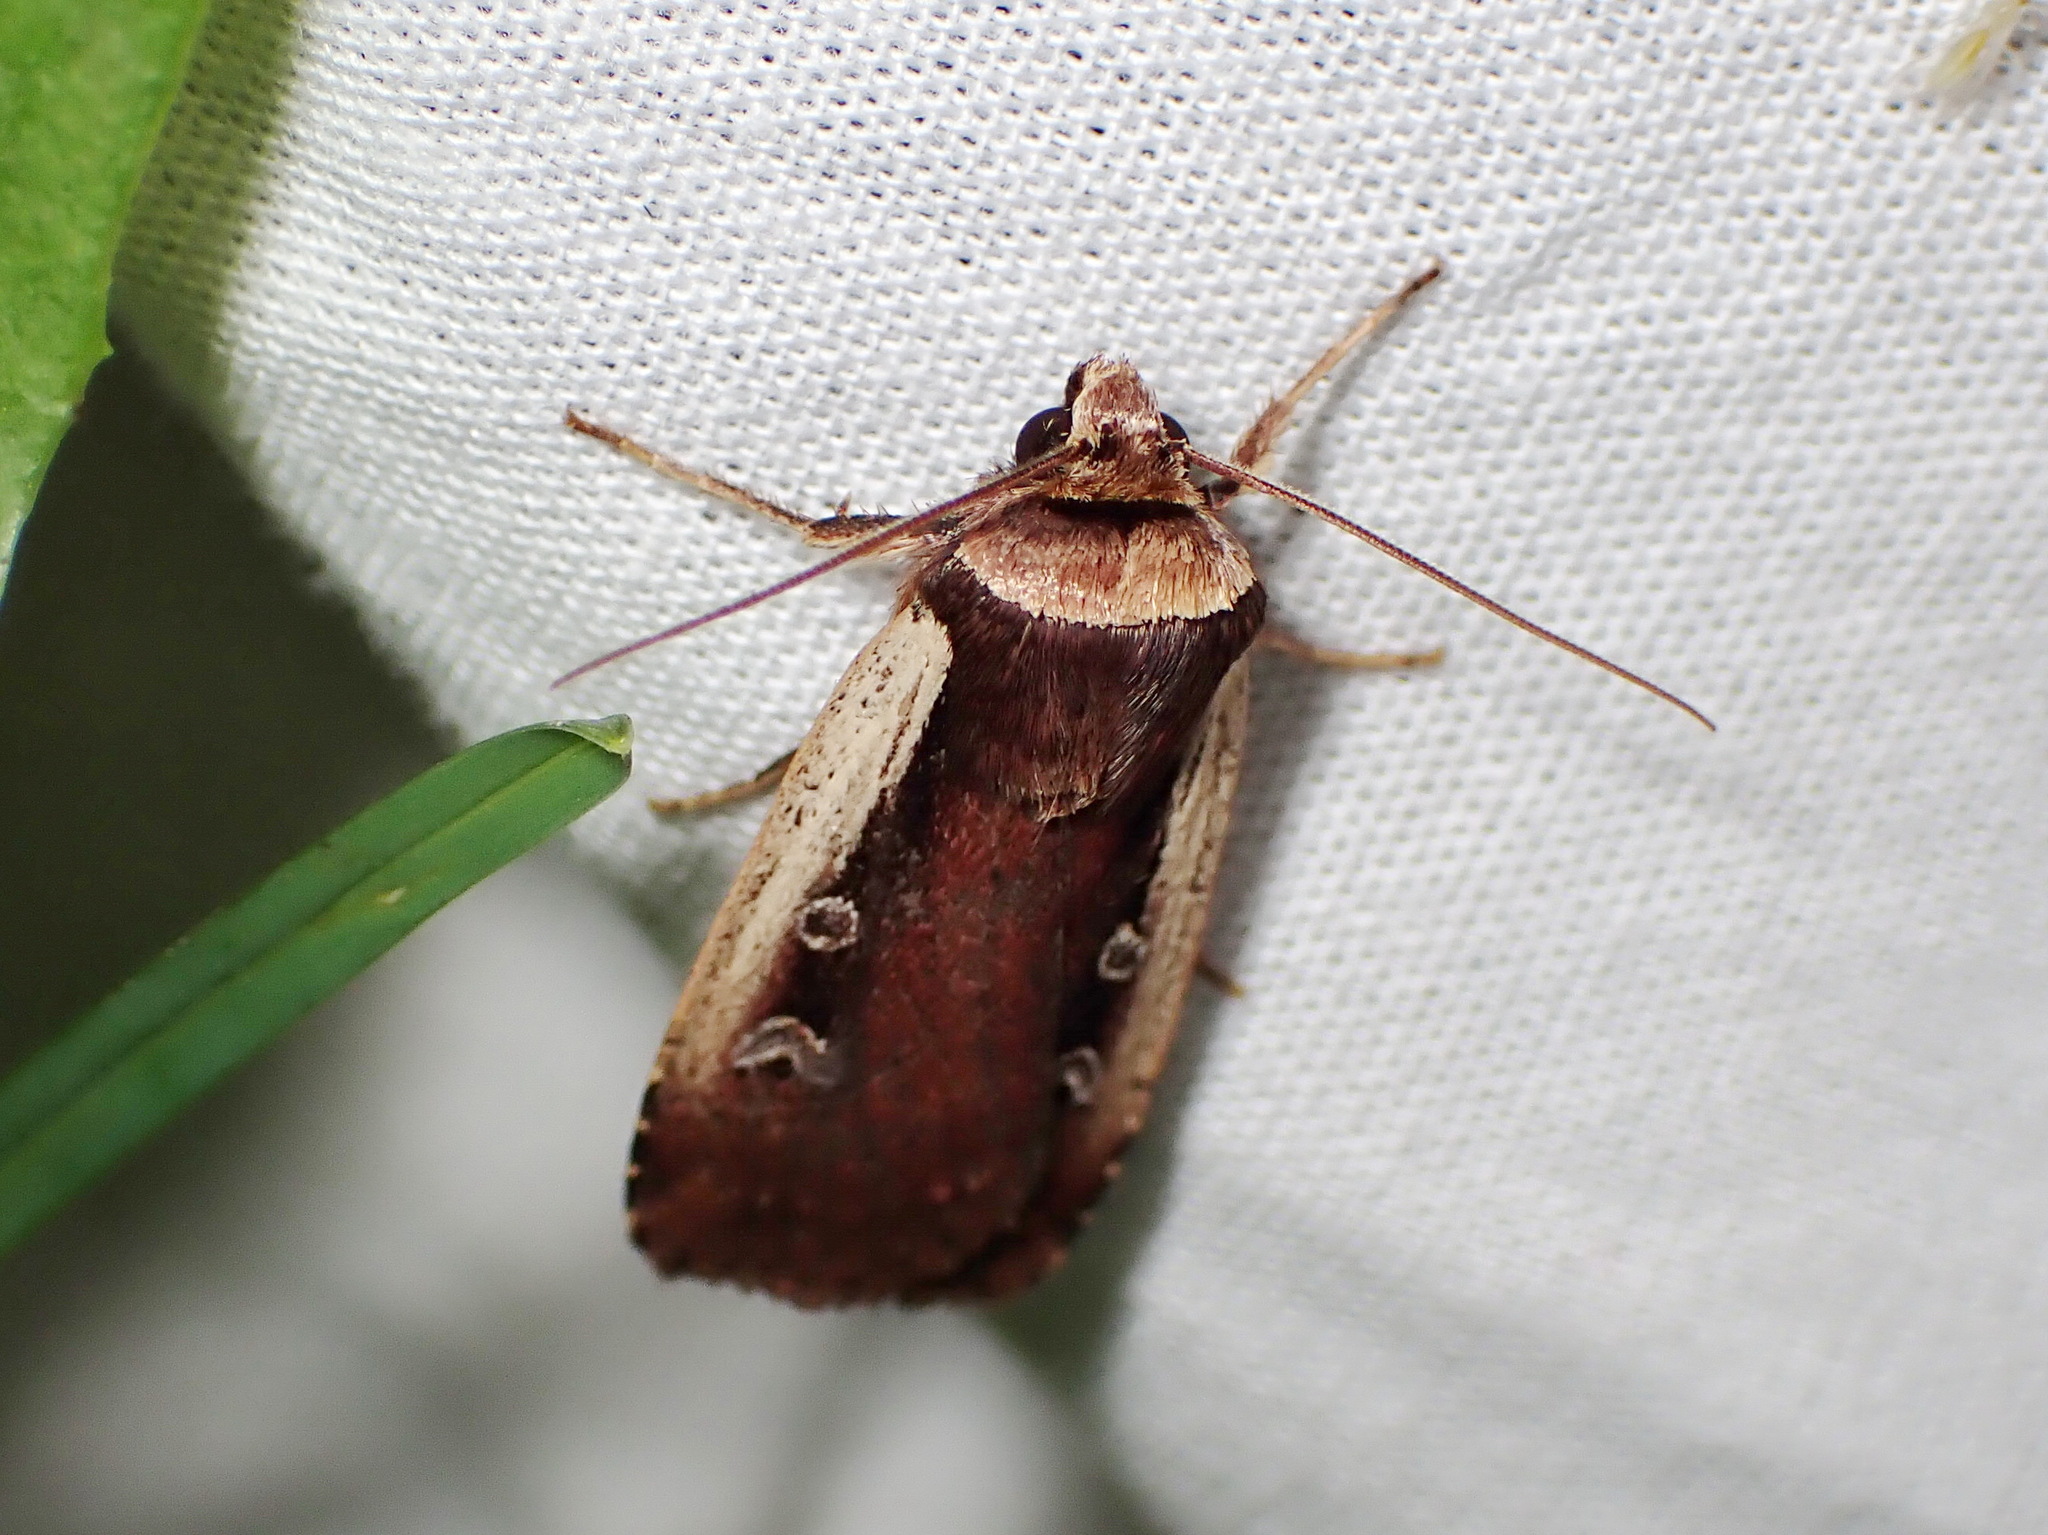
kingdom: Animalia
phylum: Arthropoda
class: Insecta
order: Lepidoptera
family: Noctuidae
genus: Ochropleura
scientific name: Ochropleura implecta
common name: Flame-shouldered dart
